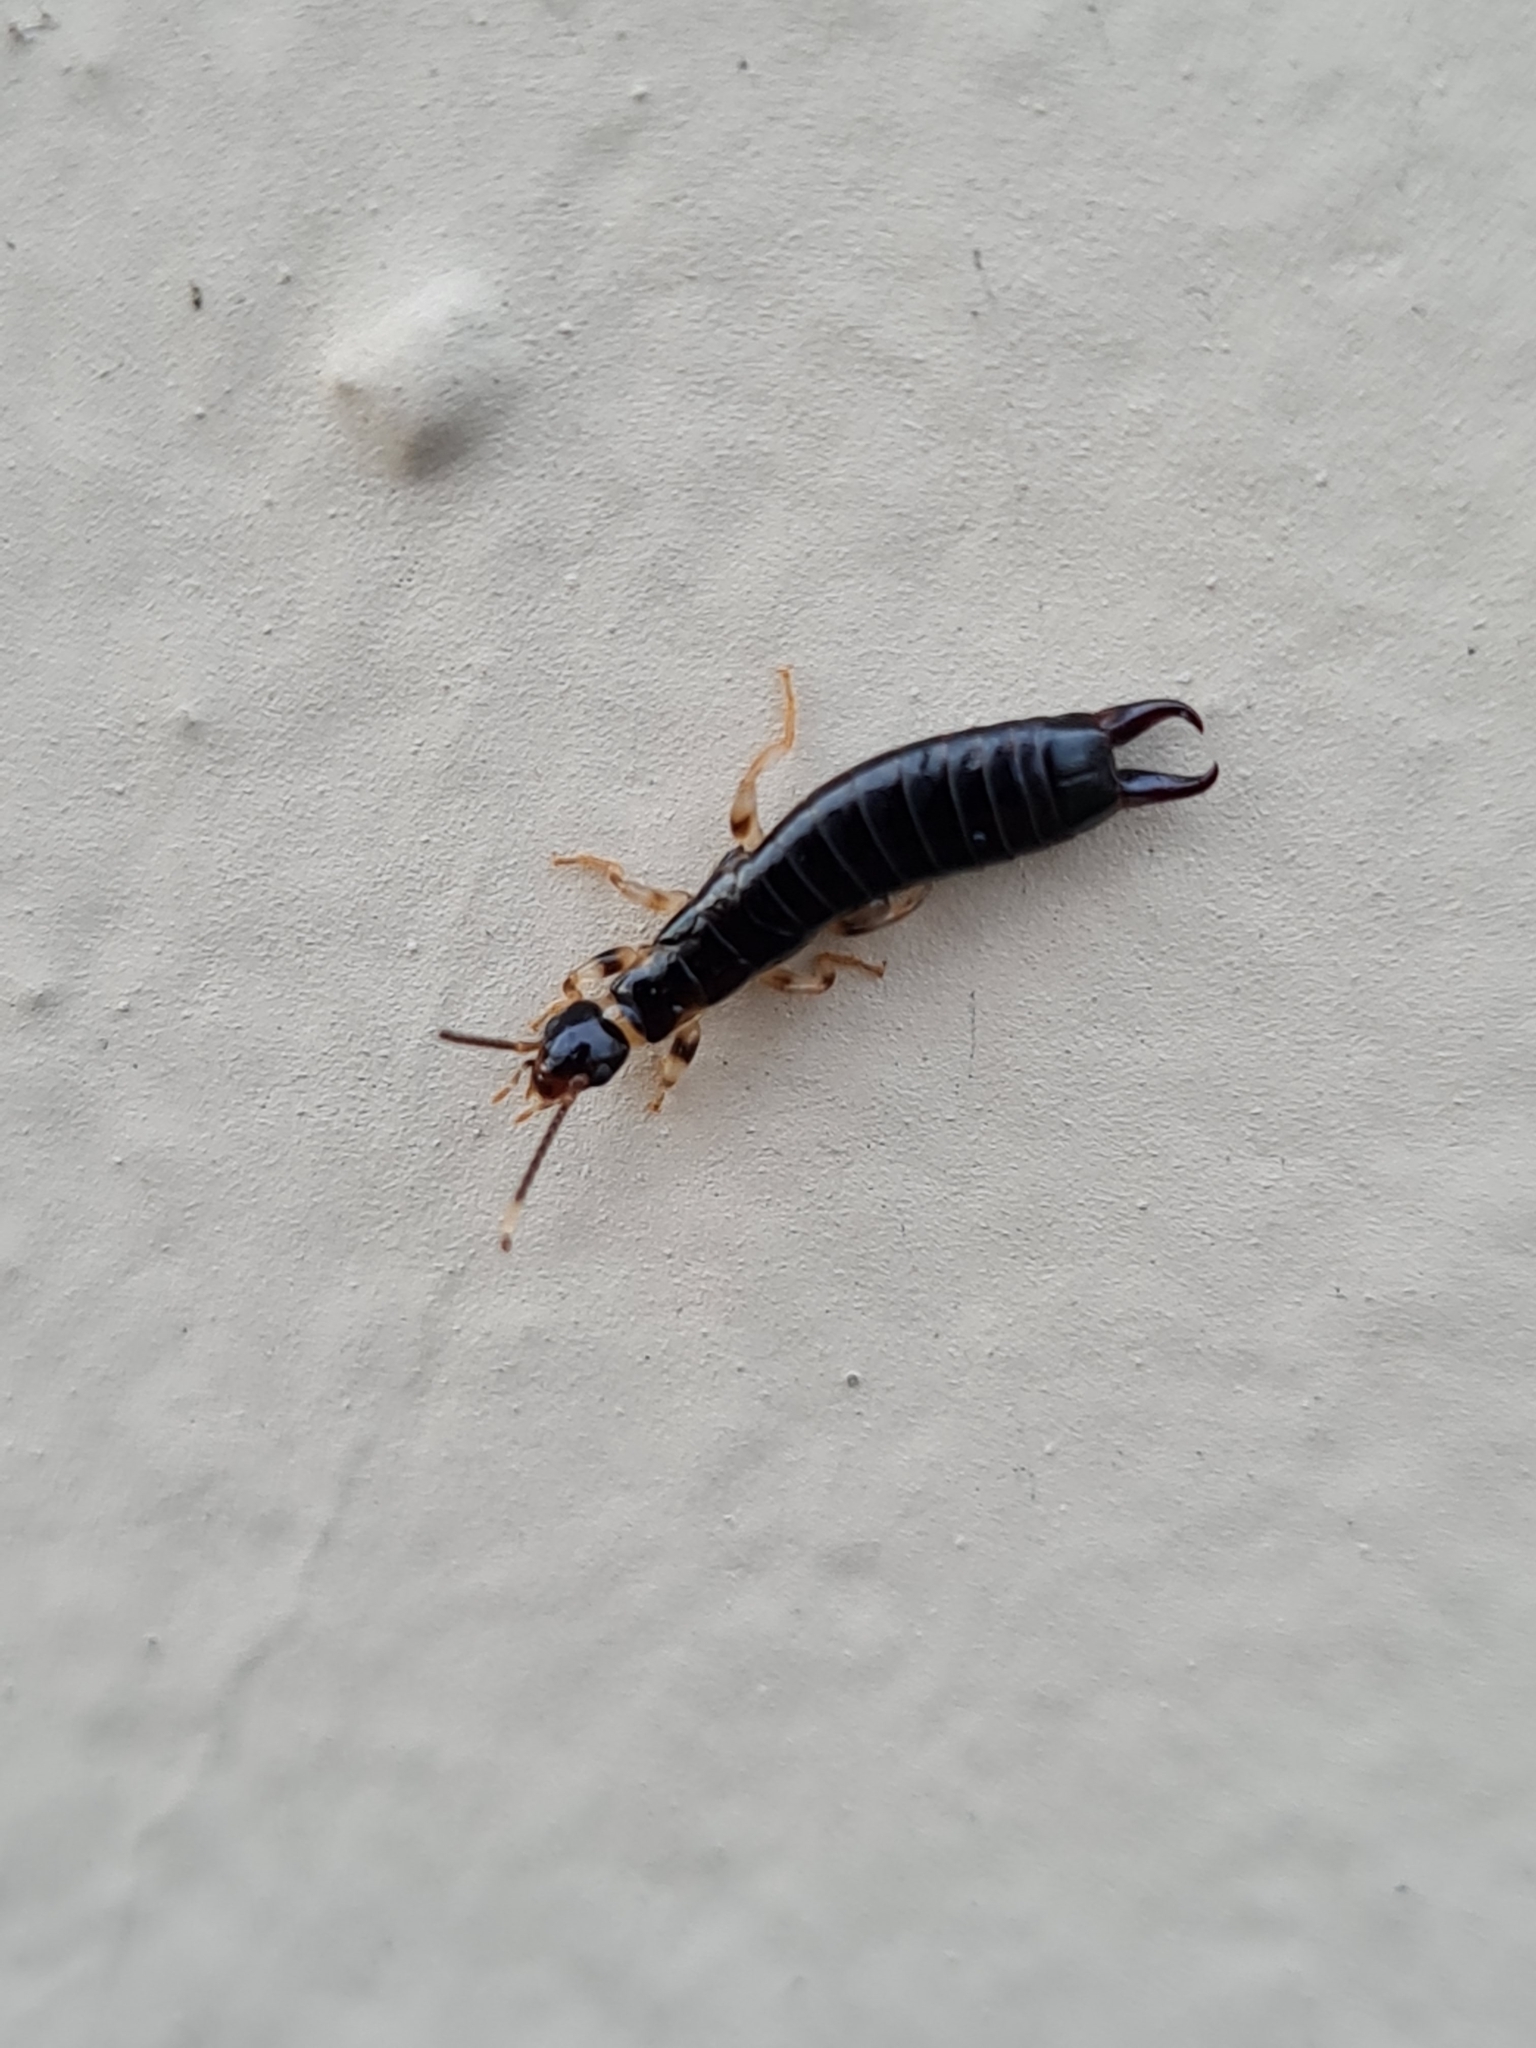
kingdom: Animalia
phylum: Arthropoda
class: Insecta
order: Dermaptera
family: Anisolabididae
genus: Euborellia
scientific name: Euborellia annulipes
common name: Ringlegged earwig
